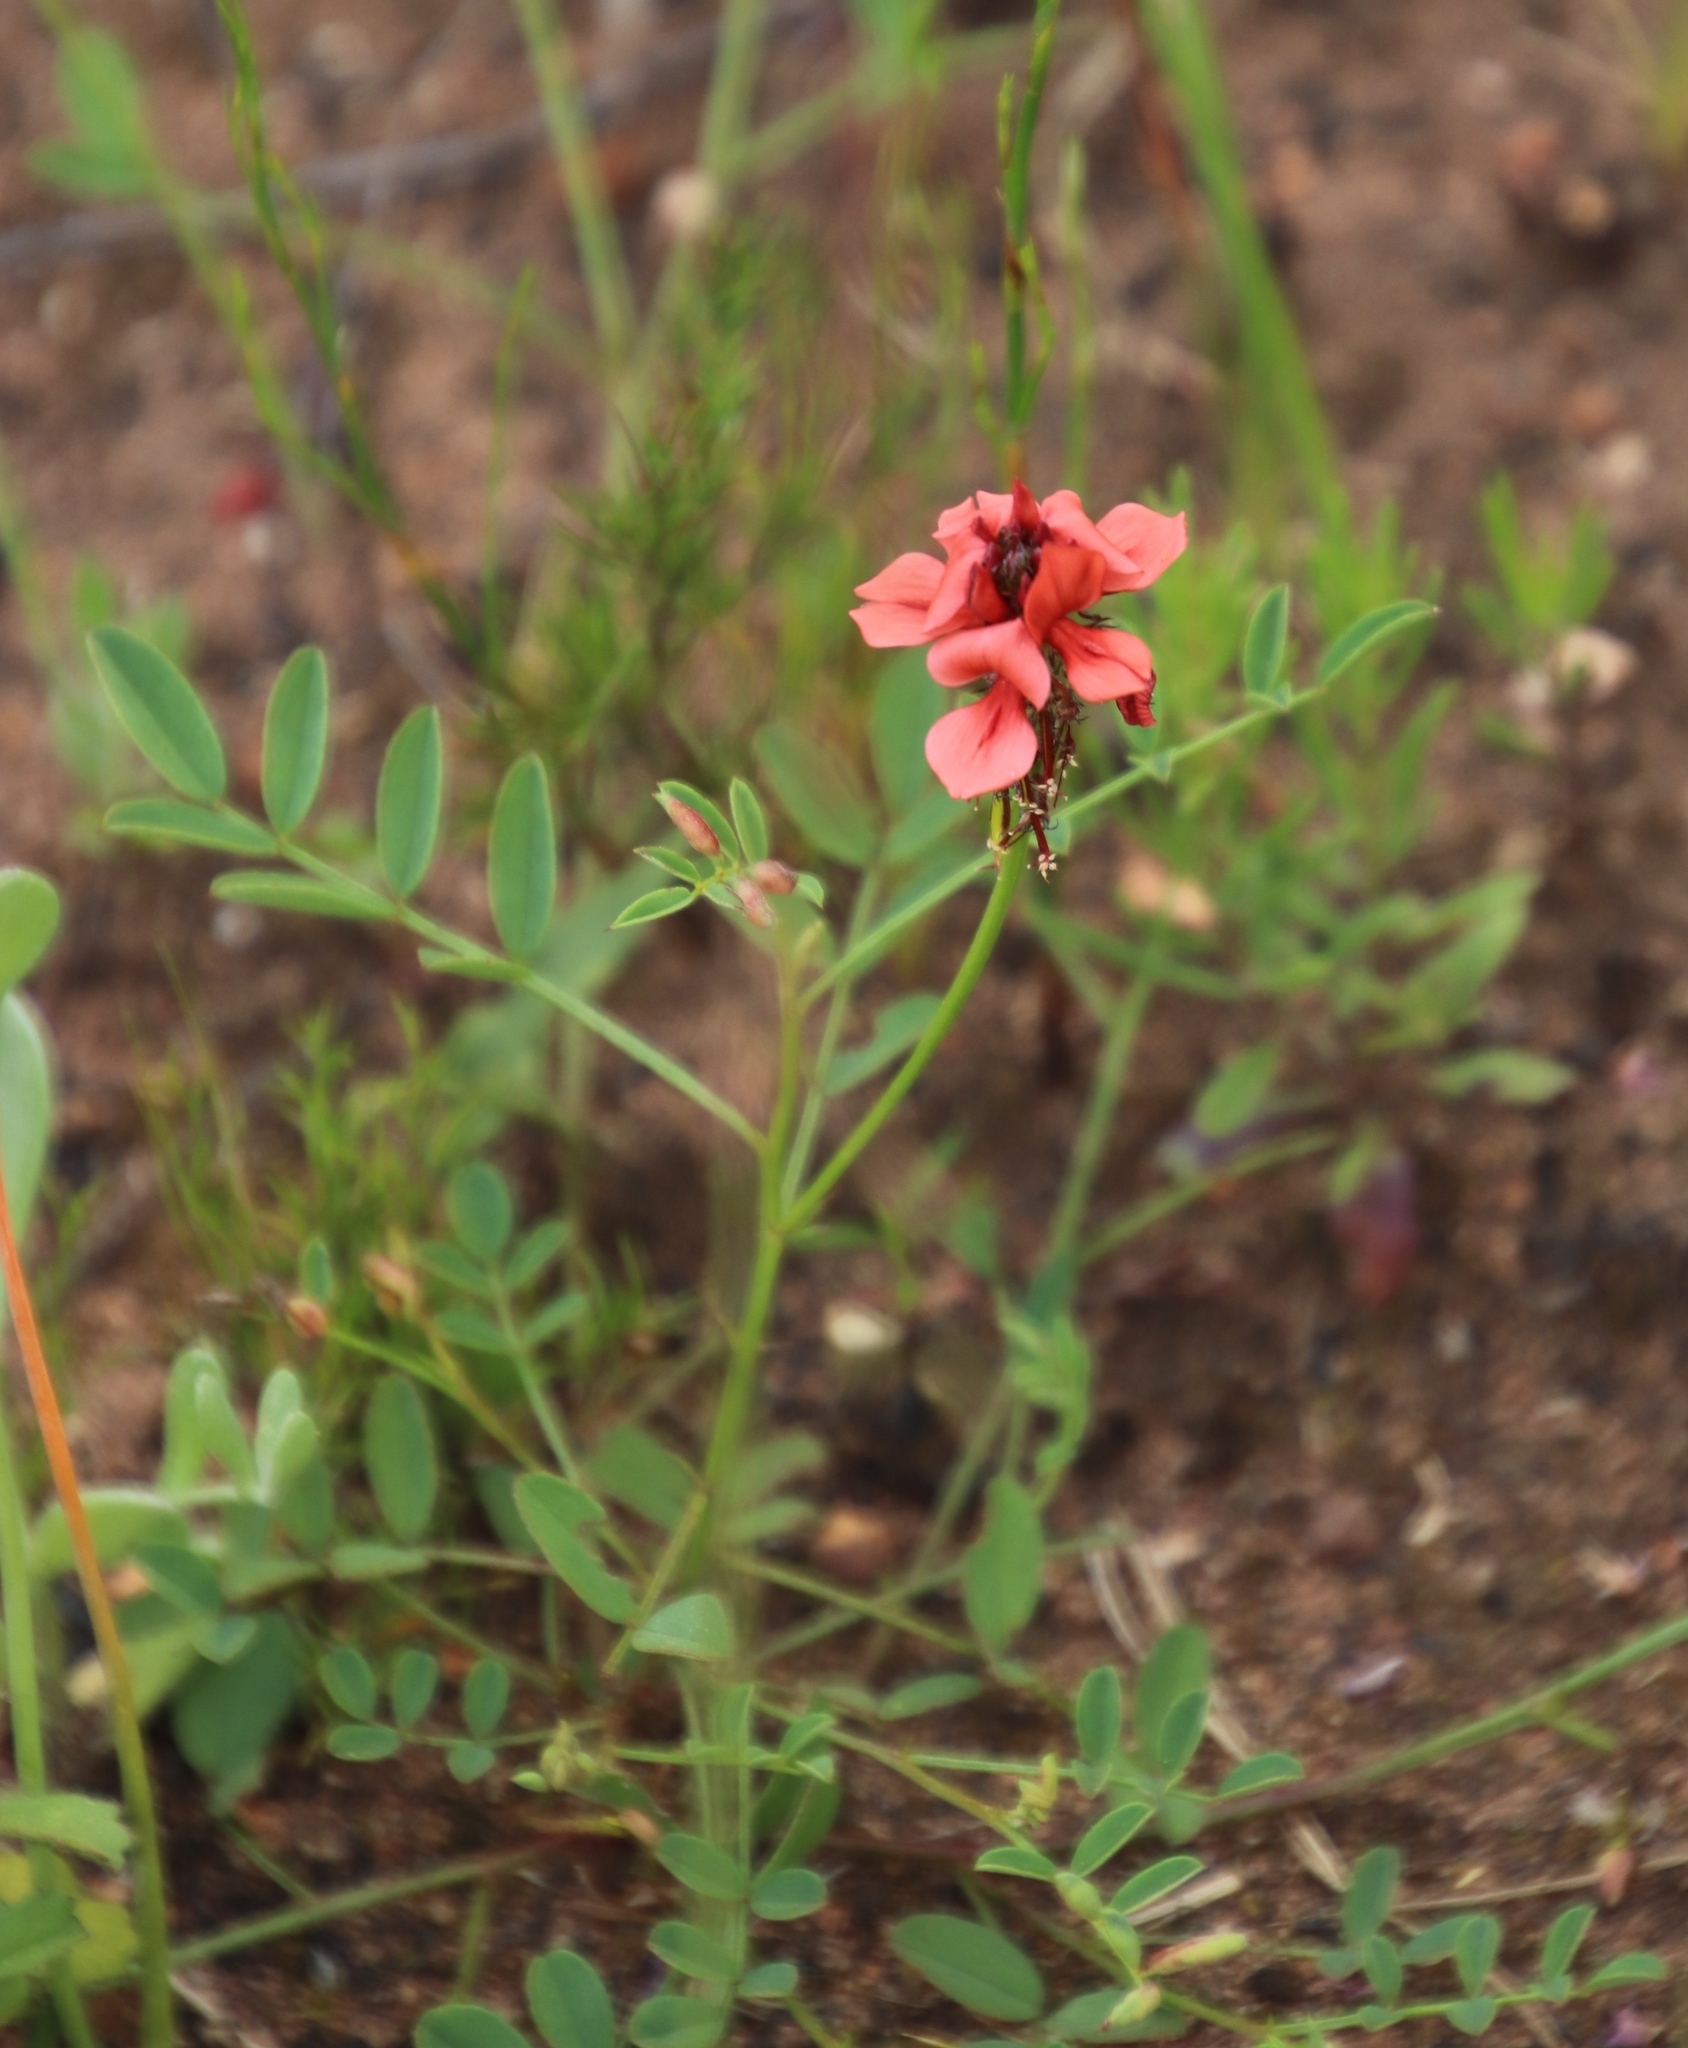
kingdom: Plantae
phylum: Tracheophyta
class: Magnoliopsida
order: Fabales
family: Fabaceae
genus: Indigofera
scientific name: Indigofera capillaris
